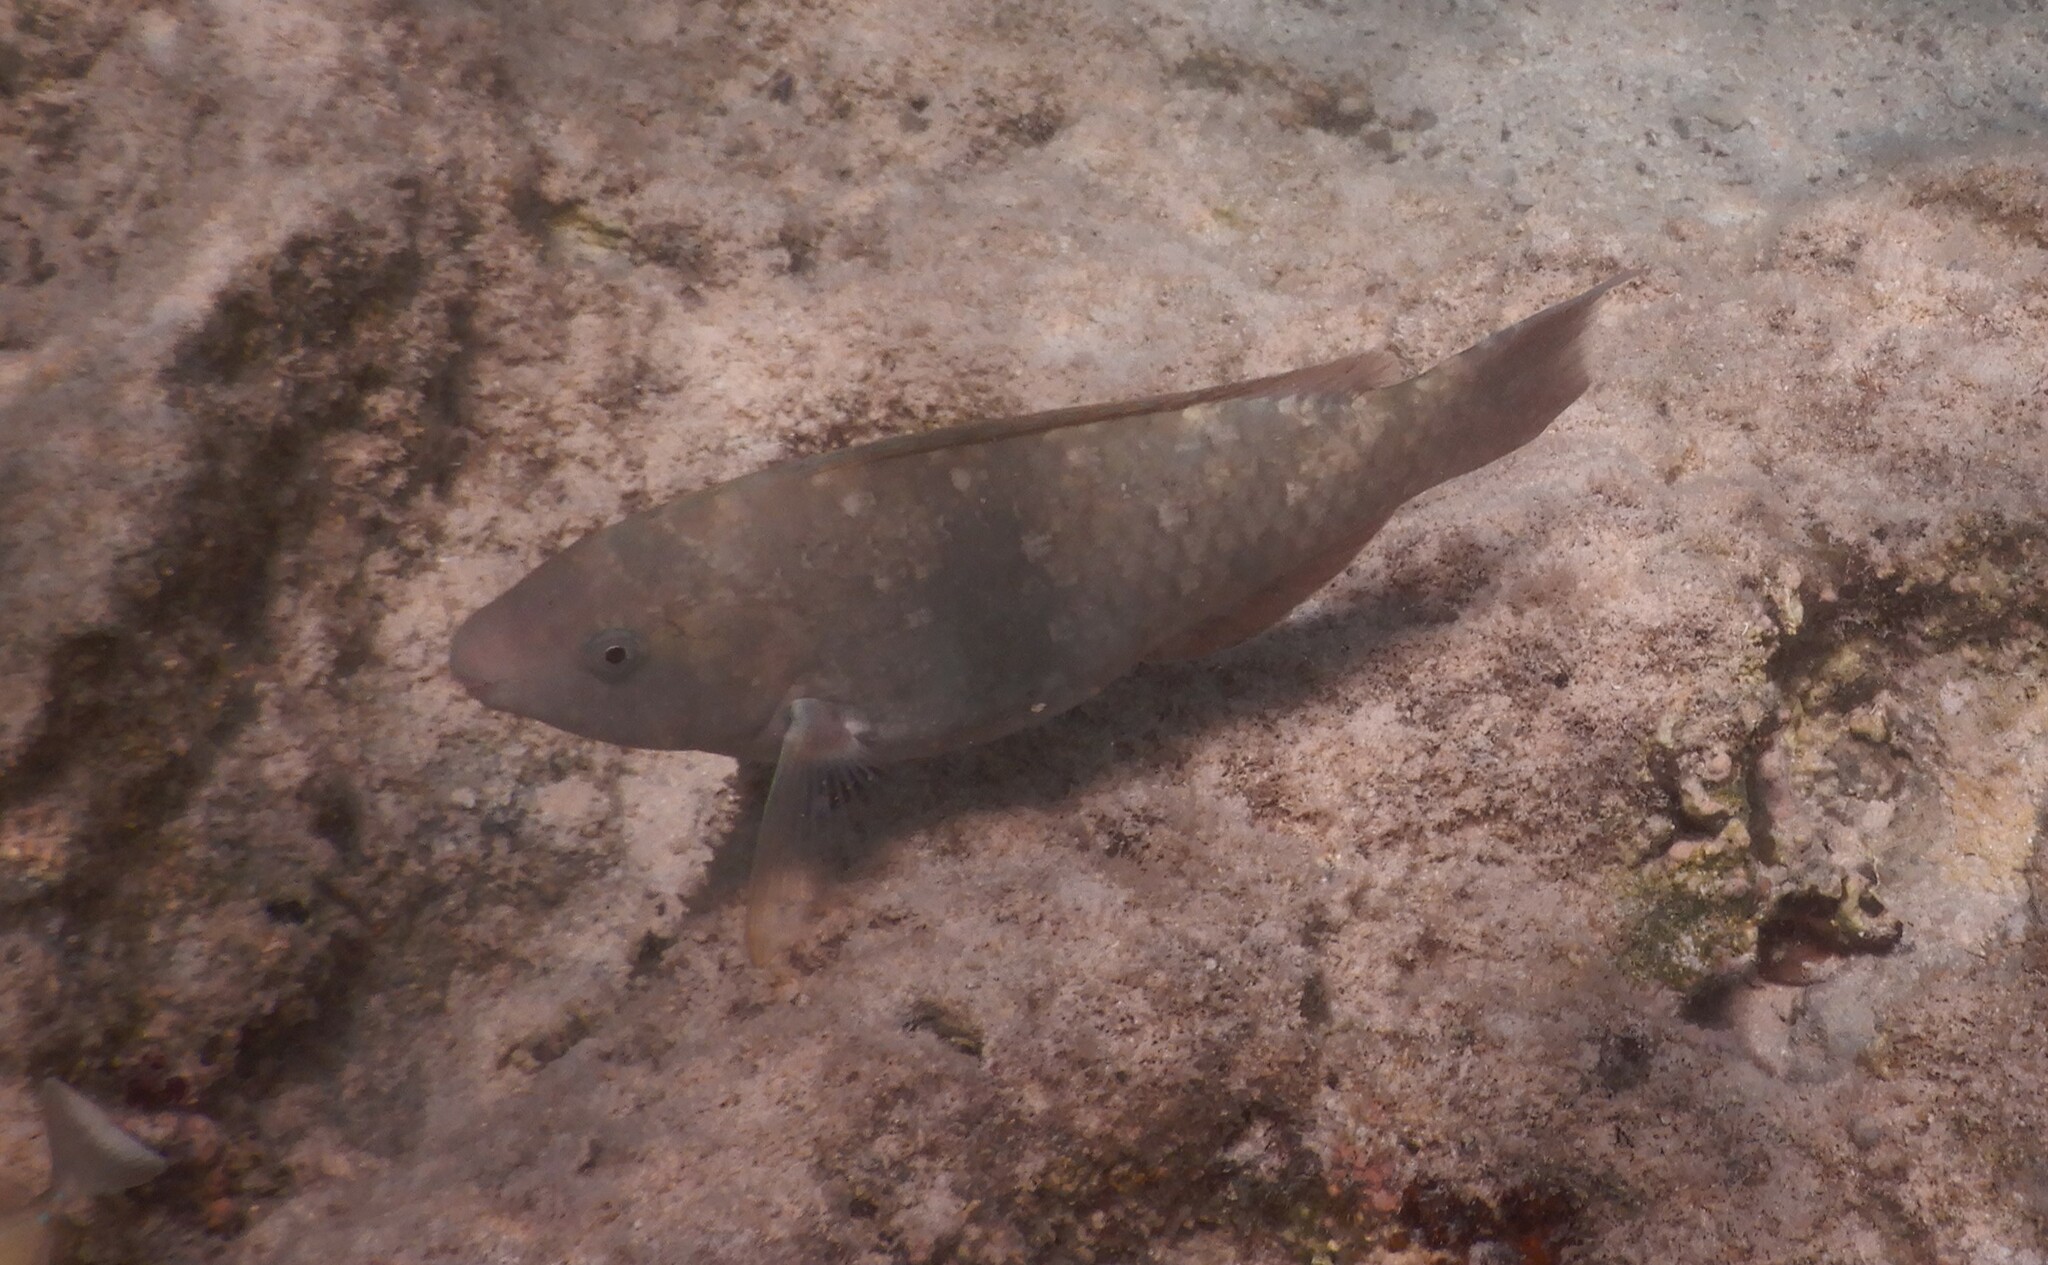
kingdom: Animalia
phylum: Chordata
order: Perciformes
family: Scaridae
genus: Scarus
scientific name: Scarus psittacus
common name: Palenose parrotfish
